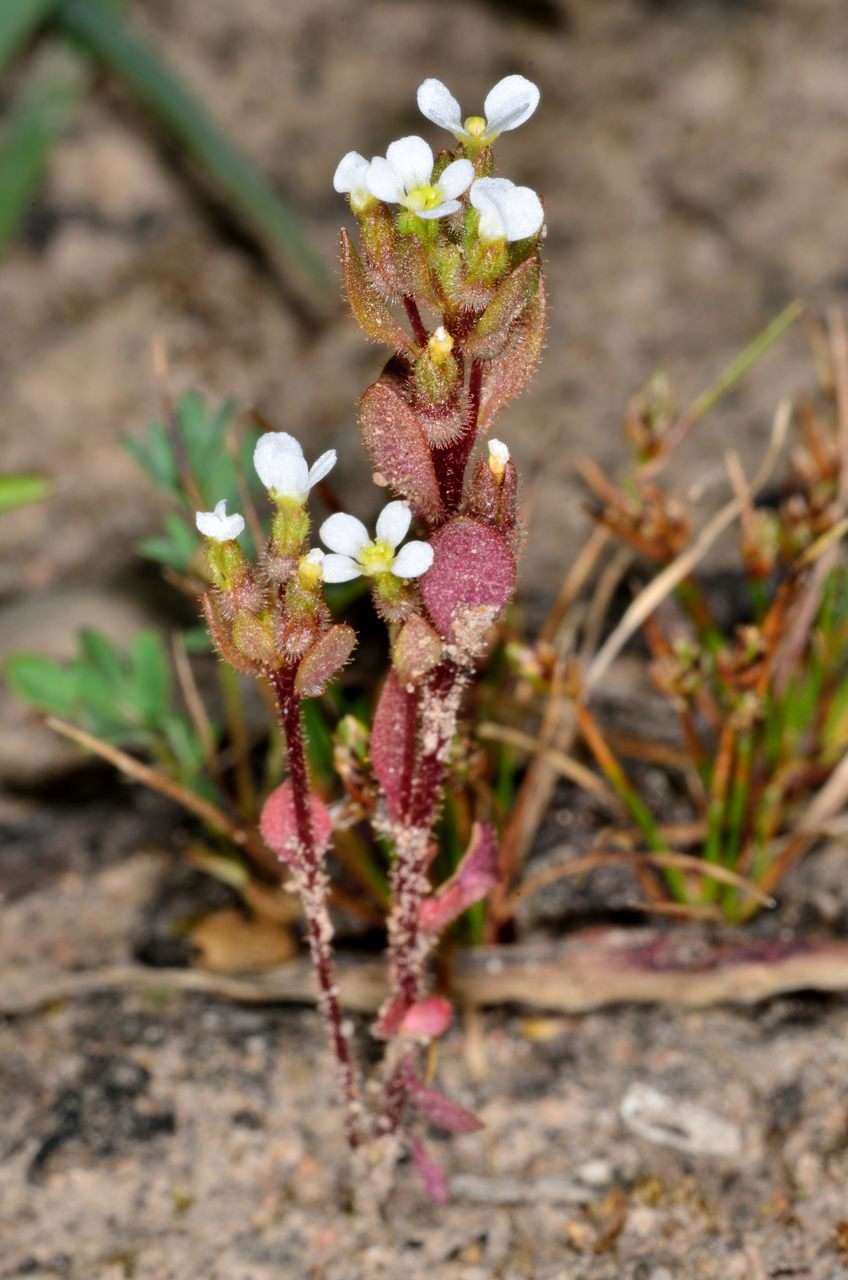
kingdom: Plantae
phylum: Tracheophyta
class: Magnoliopsida
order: Asterales
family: Stylidiaceae
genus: Levenhookia
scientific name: Levenhookia dubia
